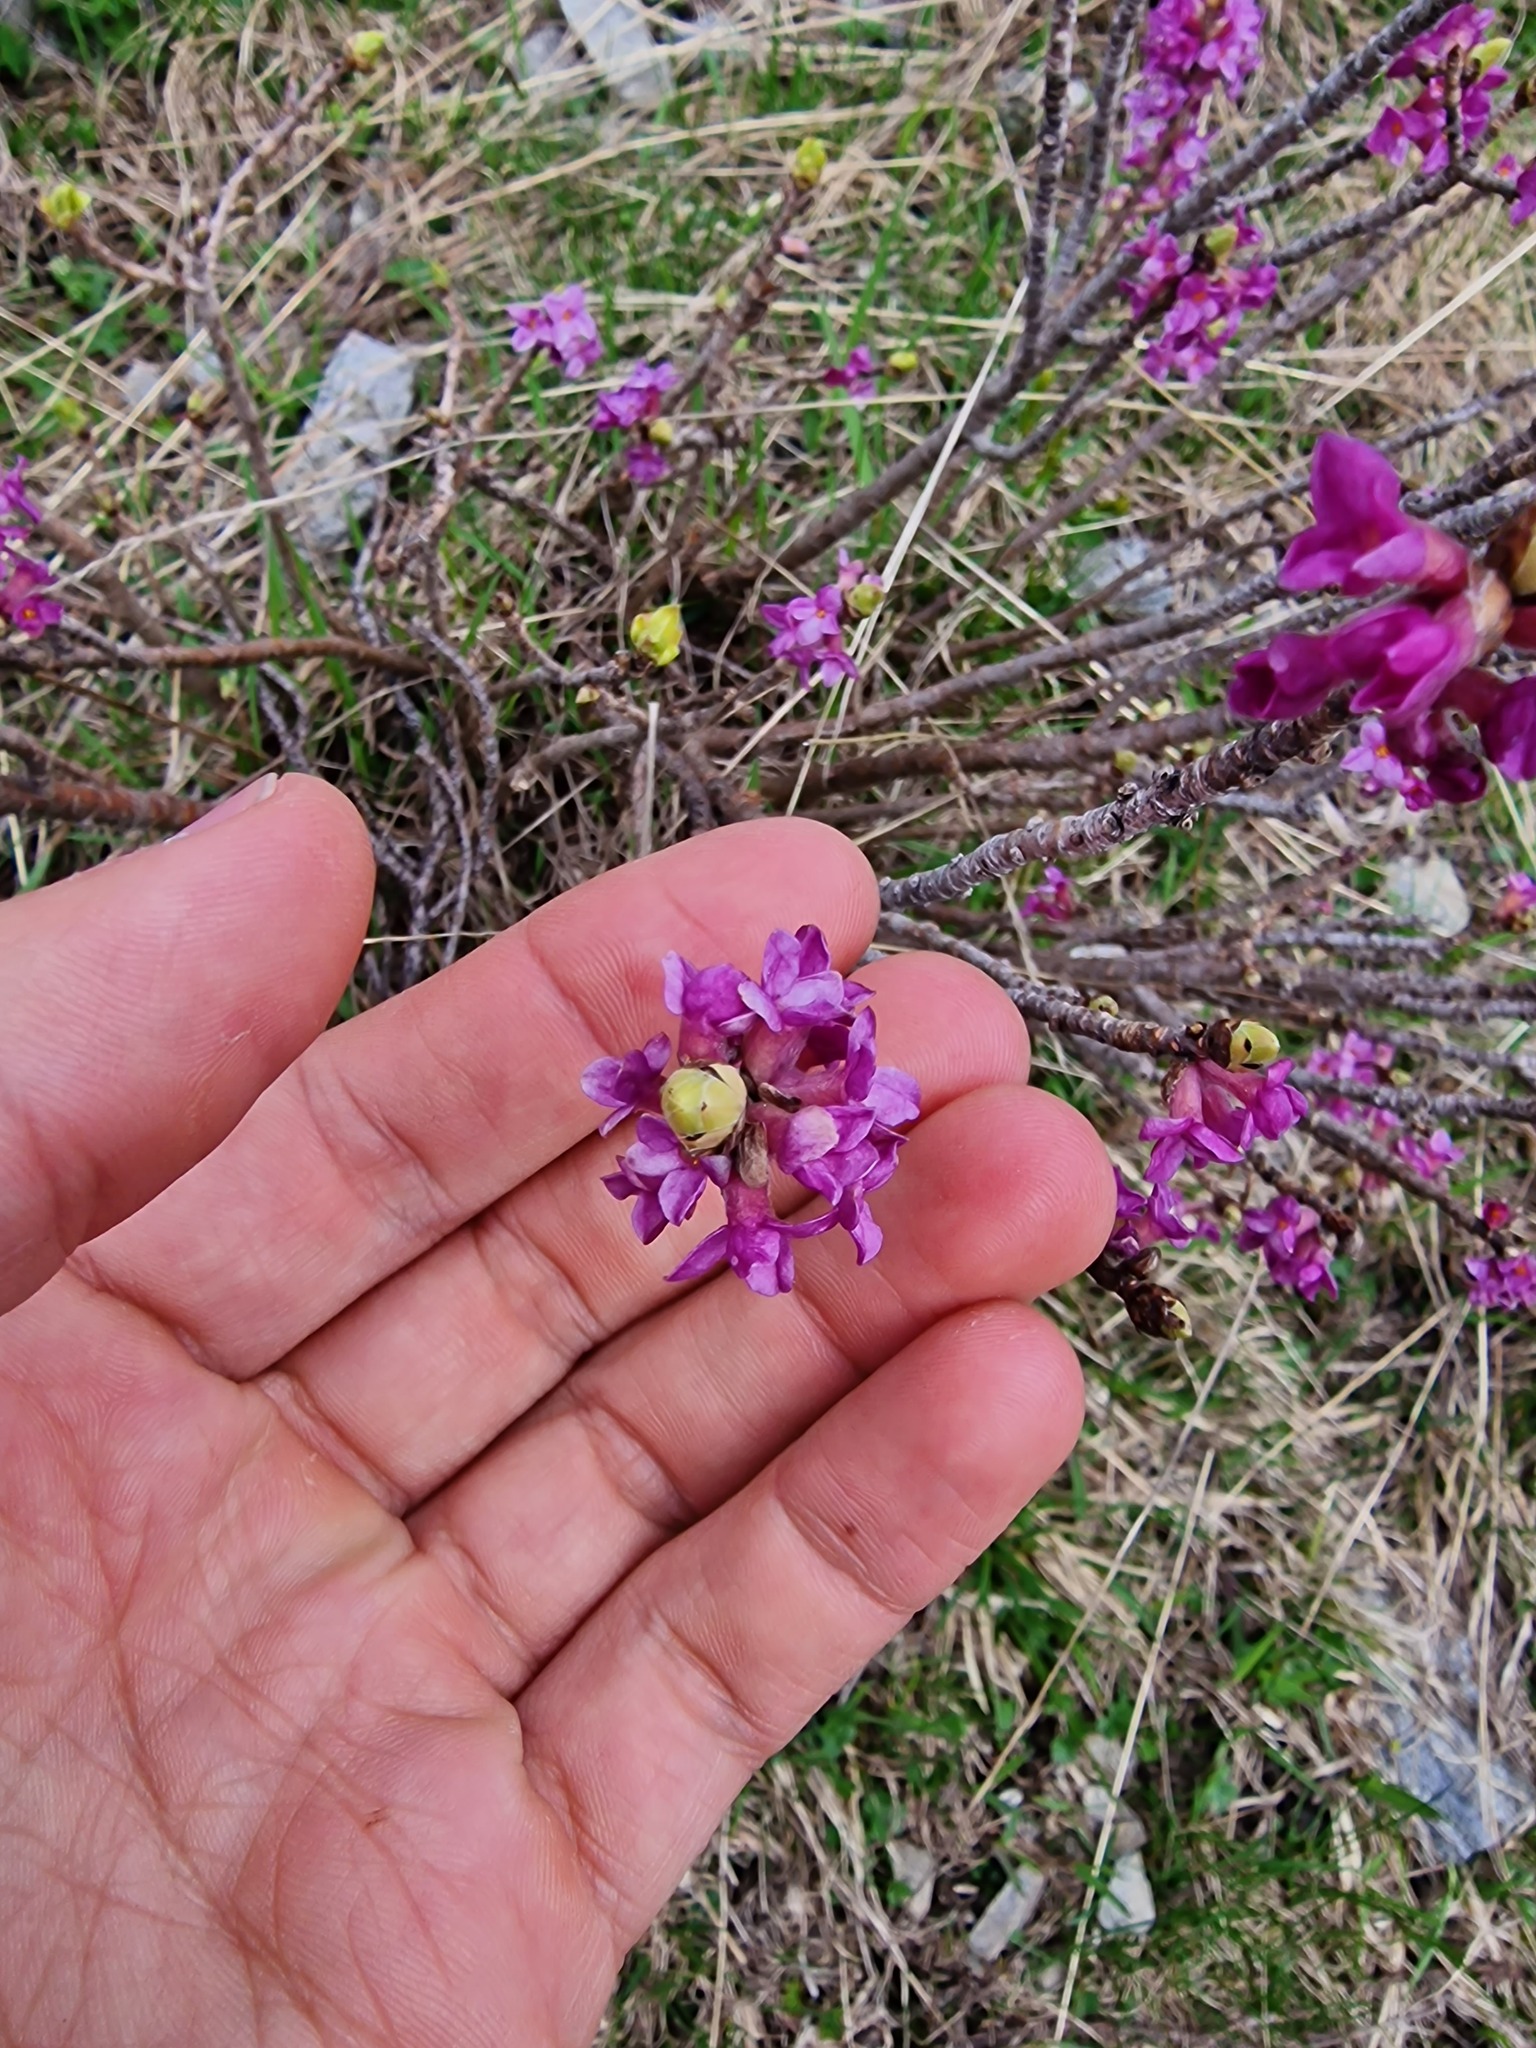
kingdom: Plantae
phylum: Tracheophyta
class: Magnoliopsida
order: Malvales
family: Thymelaeaceae
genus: Daphne
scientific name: Daphne mezereum
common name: Mezereon
